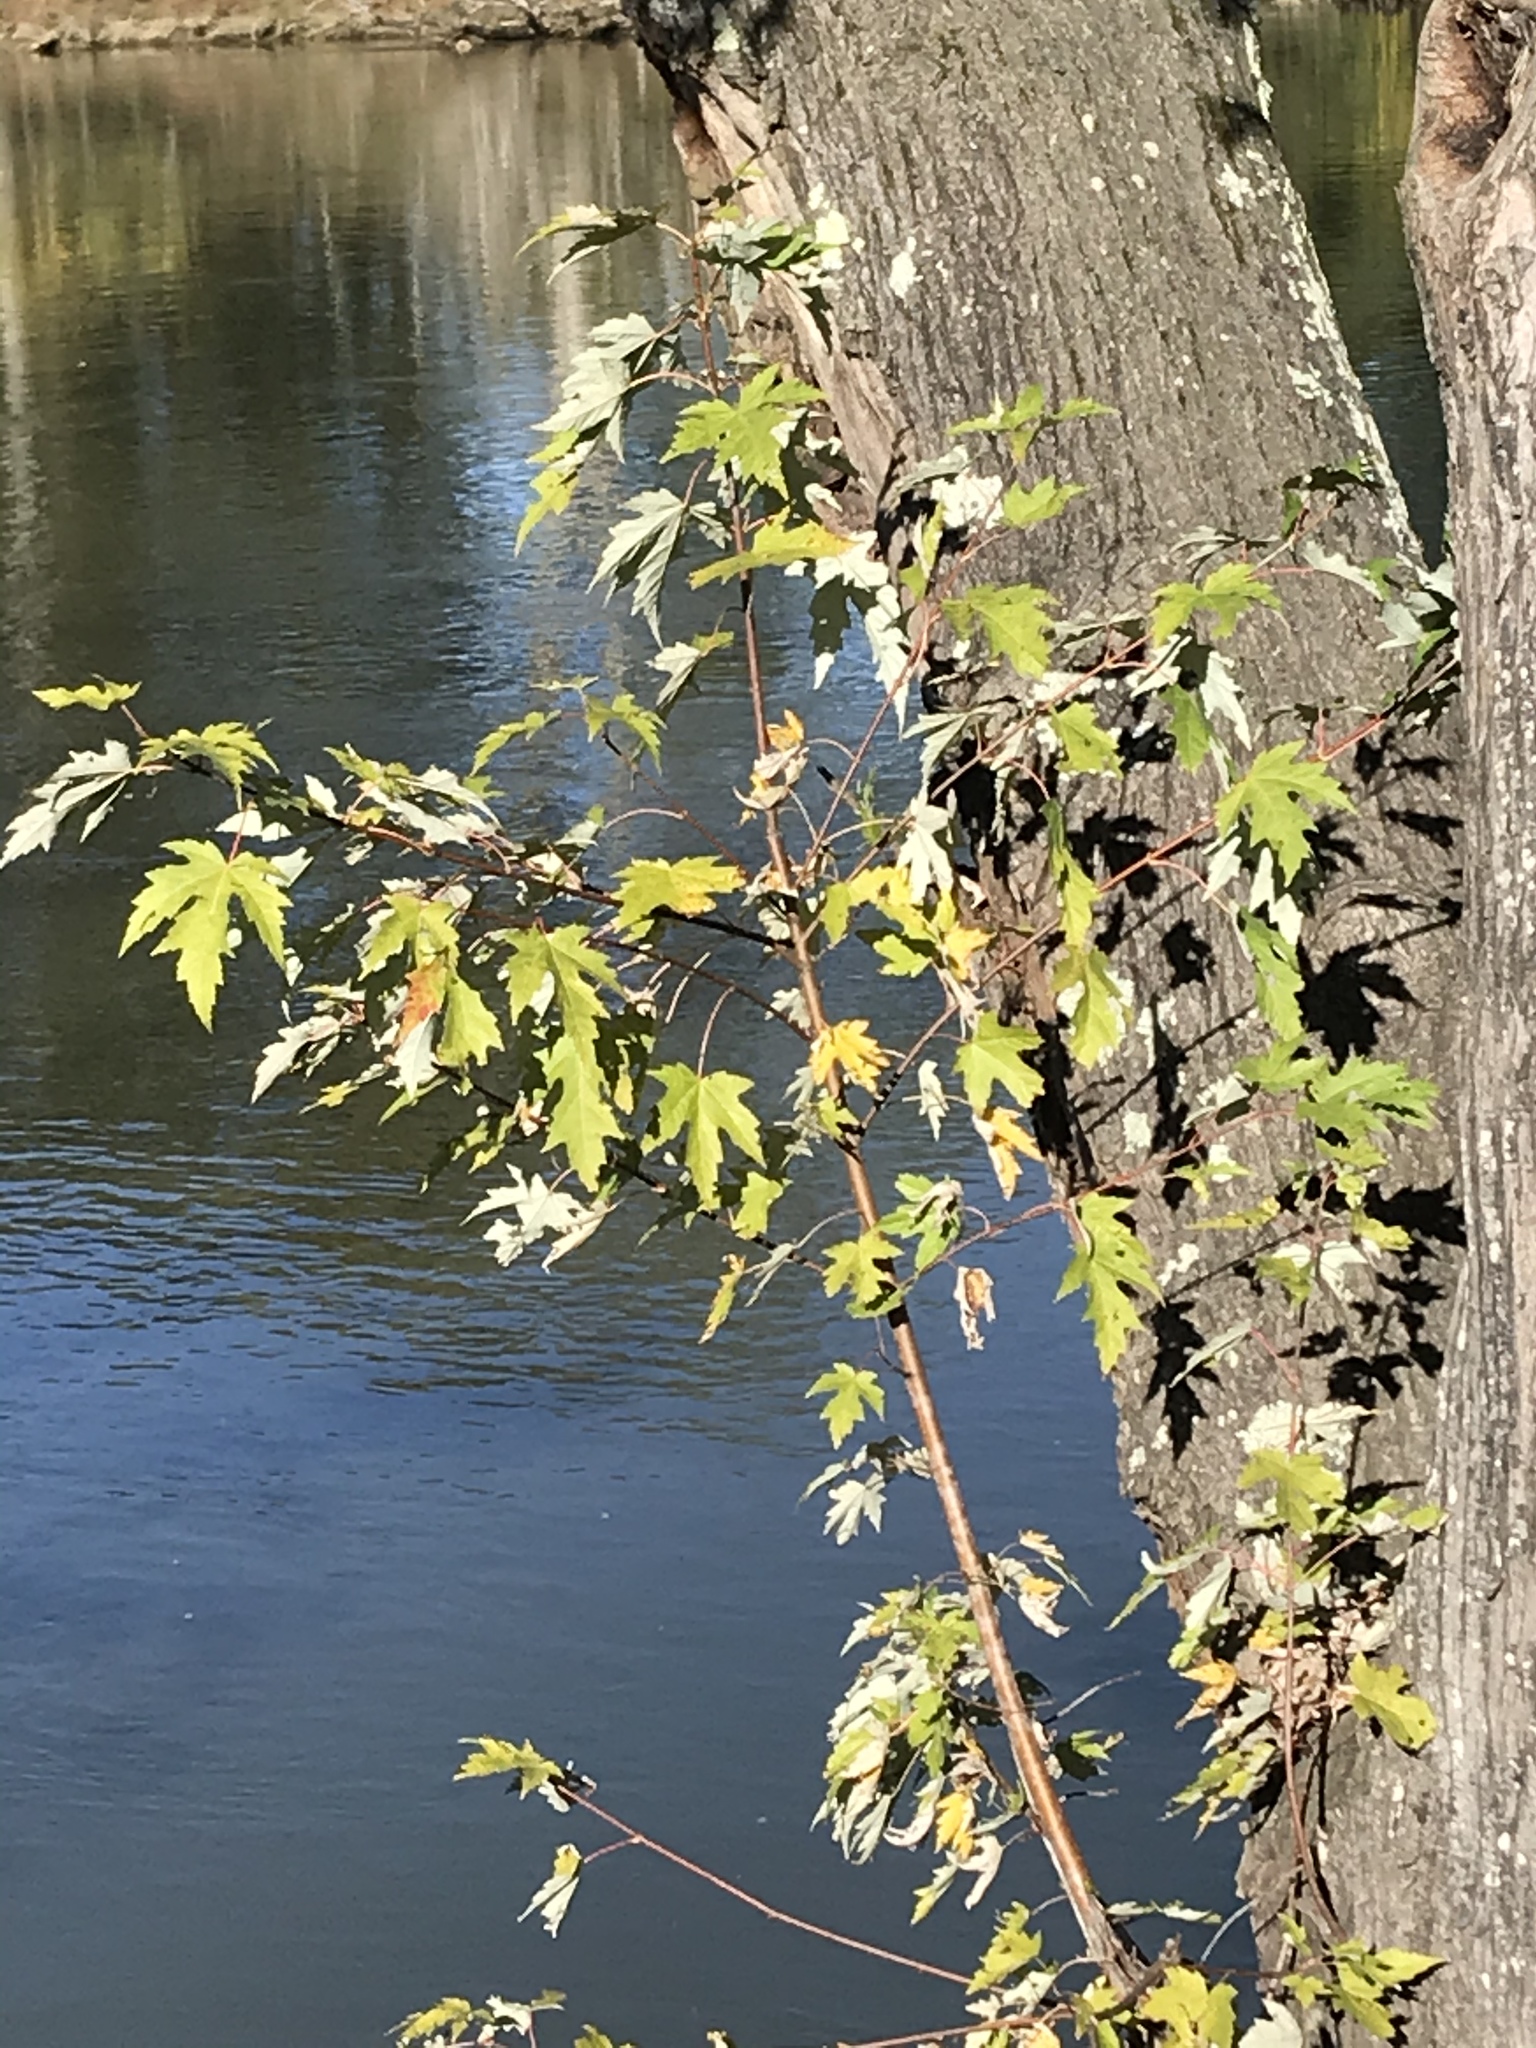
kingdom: Plantae
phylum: Tracheophyta
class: Magnoliopsida
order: Sapindales
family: Sapindaceae
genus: Acer
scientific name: Acer saccharinum
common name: Silver maple
